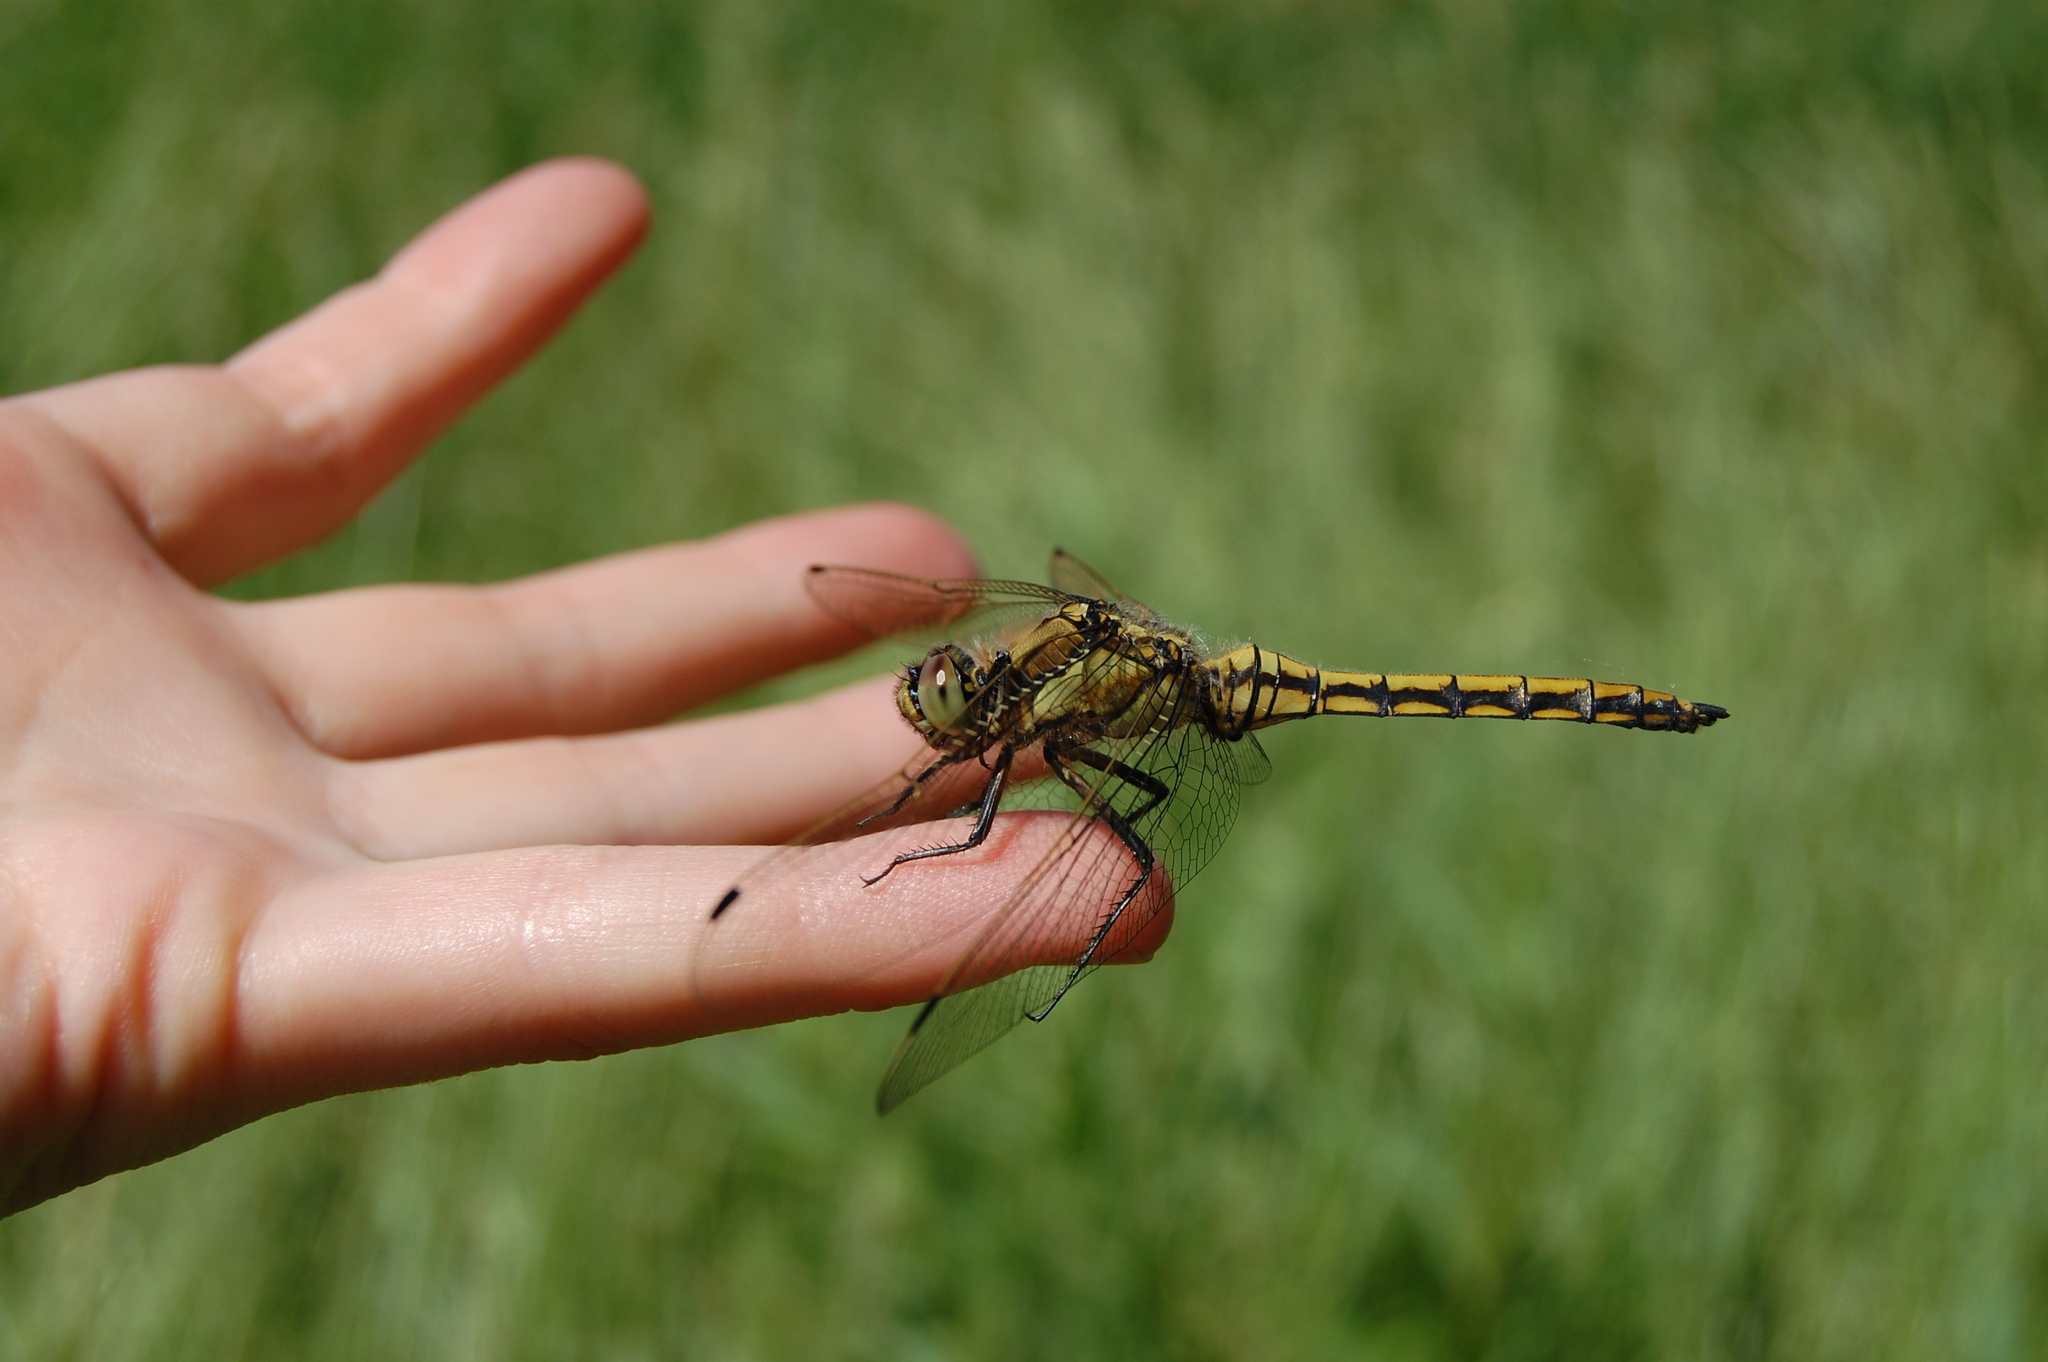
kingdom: Animalia
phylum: Arthropoda
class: Insecta
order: Odonata
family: Libellulidae
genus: Orthetrum
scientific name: Orthetrum cancellatum
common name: Black-tailed skimmer
